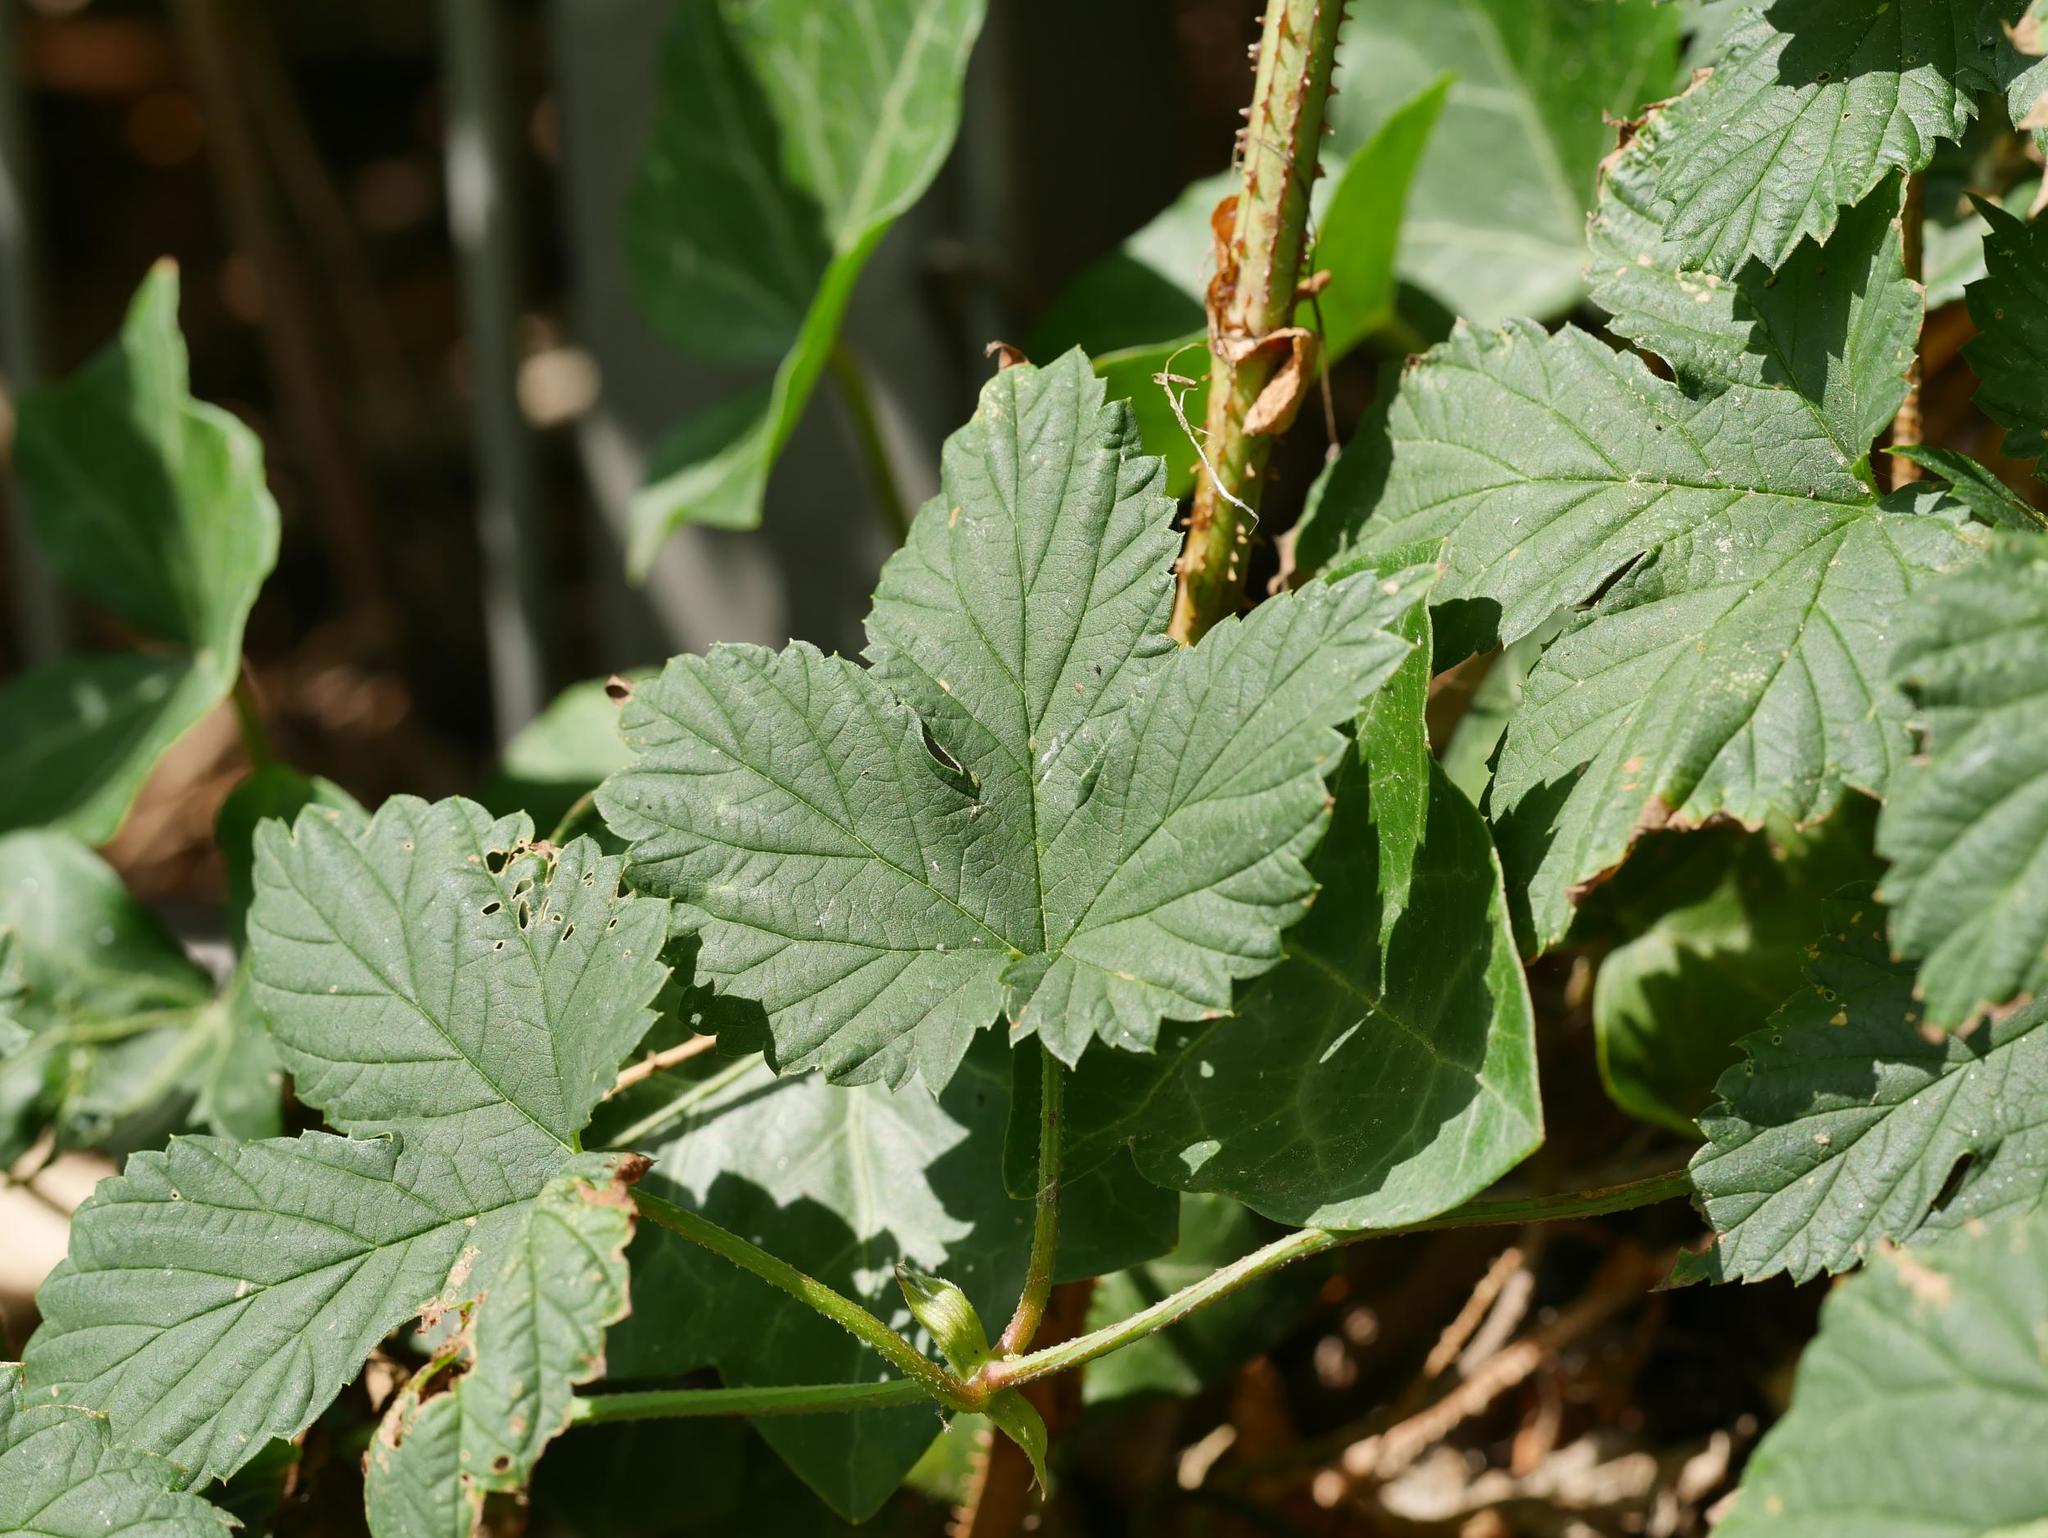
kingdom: Plantae
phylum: Tracheophyta
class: Magnoliopsida
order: Rosales
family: Cannabaceae
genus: Humulus
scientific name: Humulus lupulus
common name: Hop
